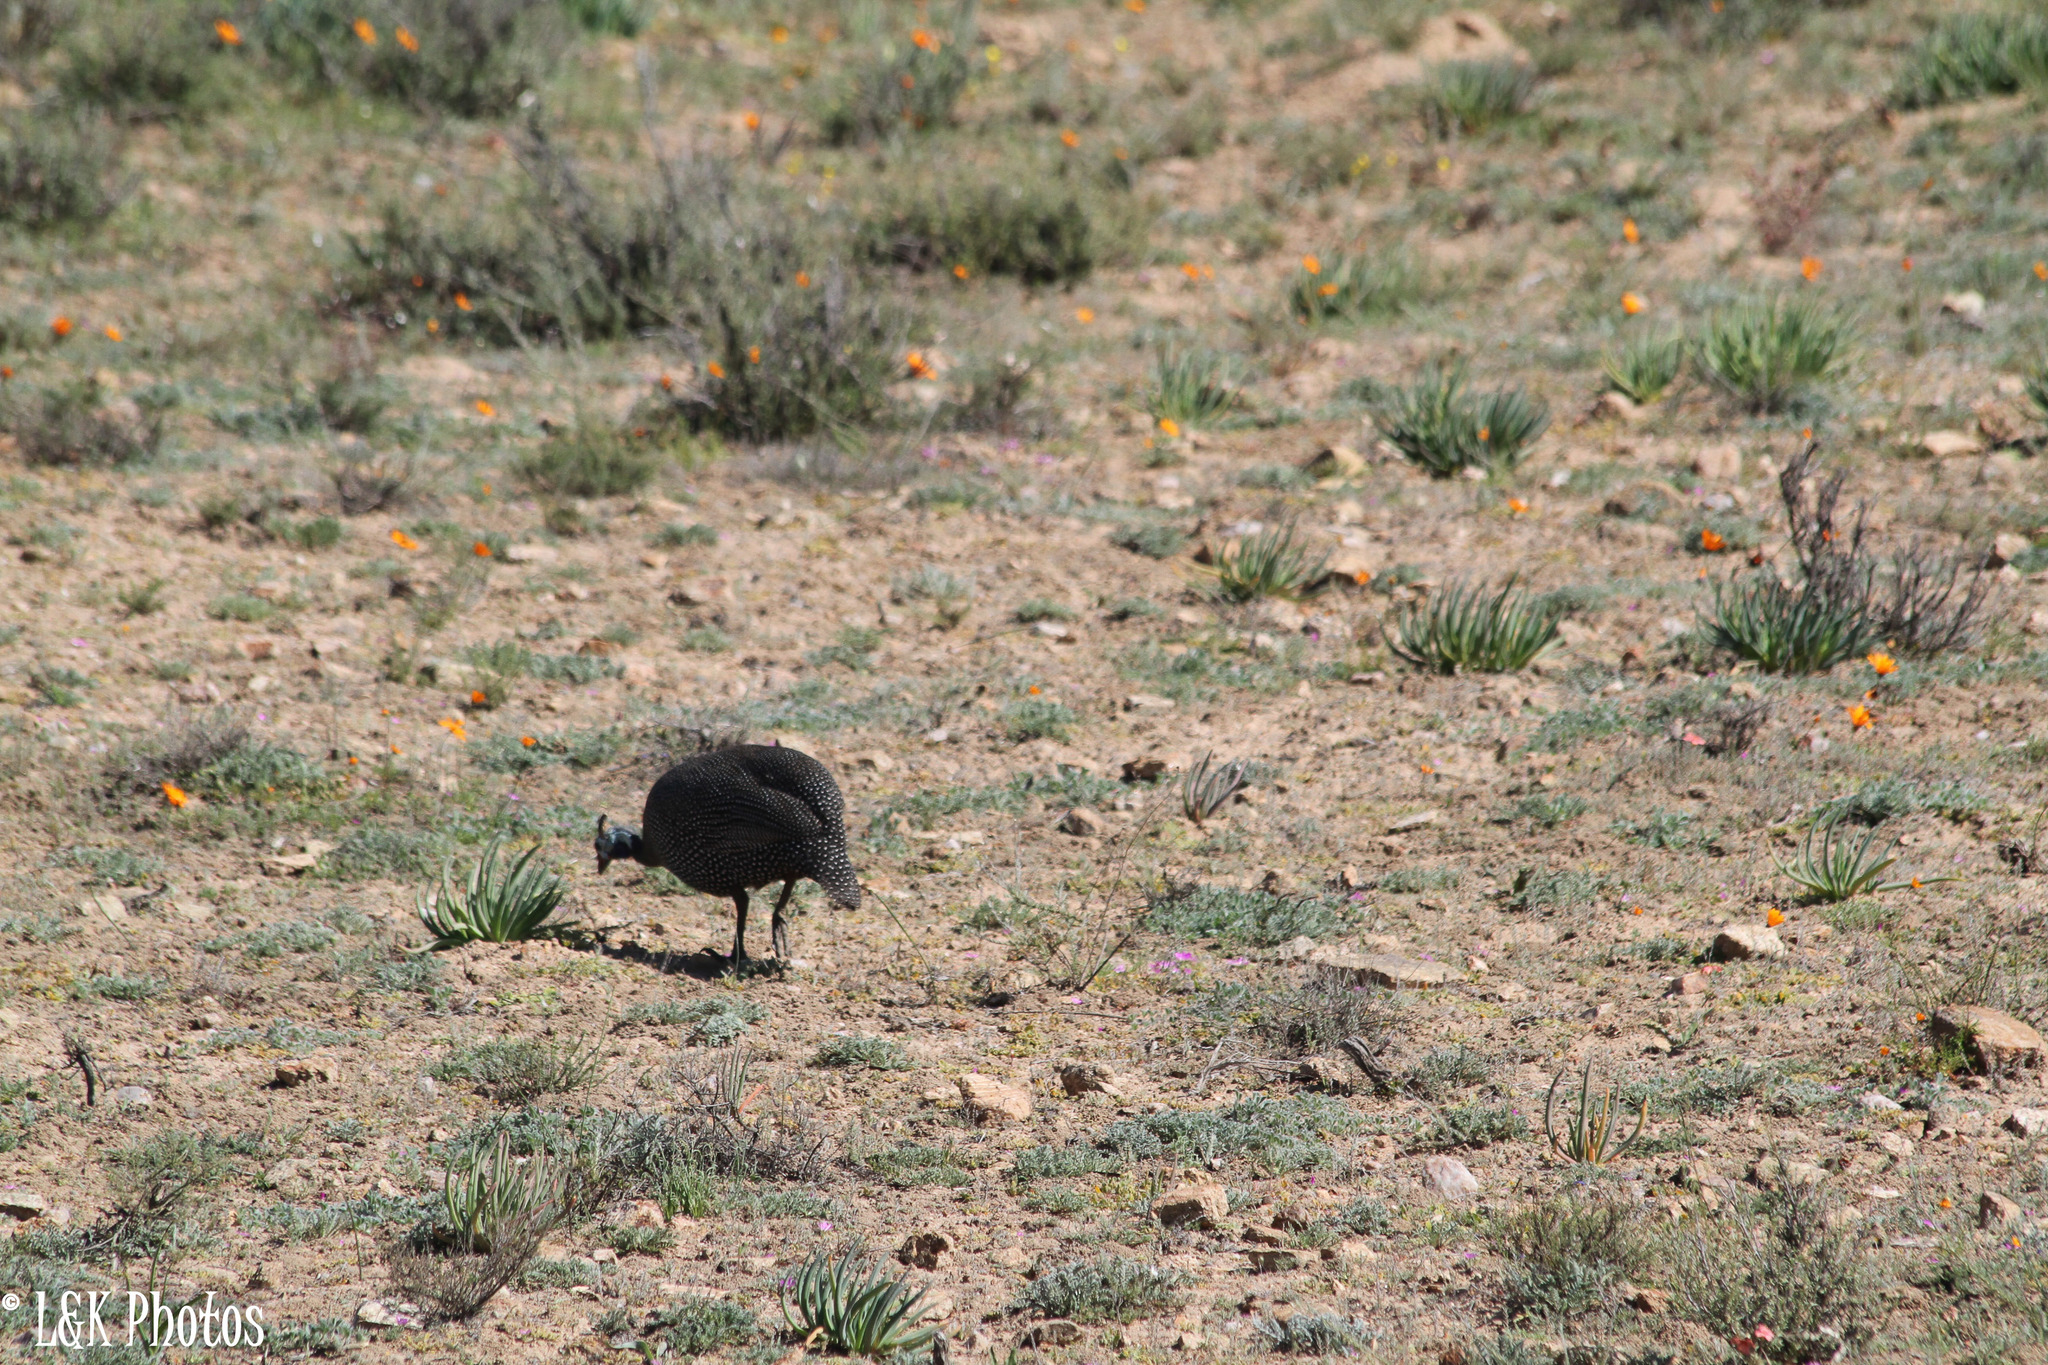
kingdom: Animalia
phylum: Chordata
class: Aves
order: Galliformes
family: Numididae
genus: Numida
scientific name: Numida meleagris
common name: Helmeted guineafowl
